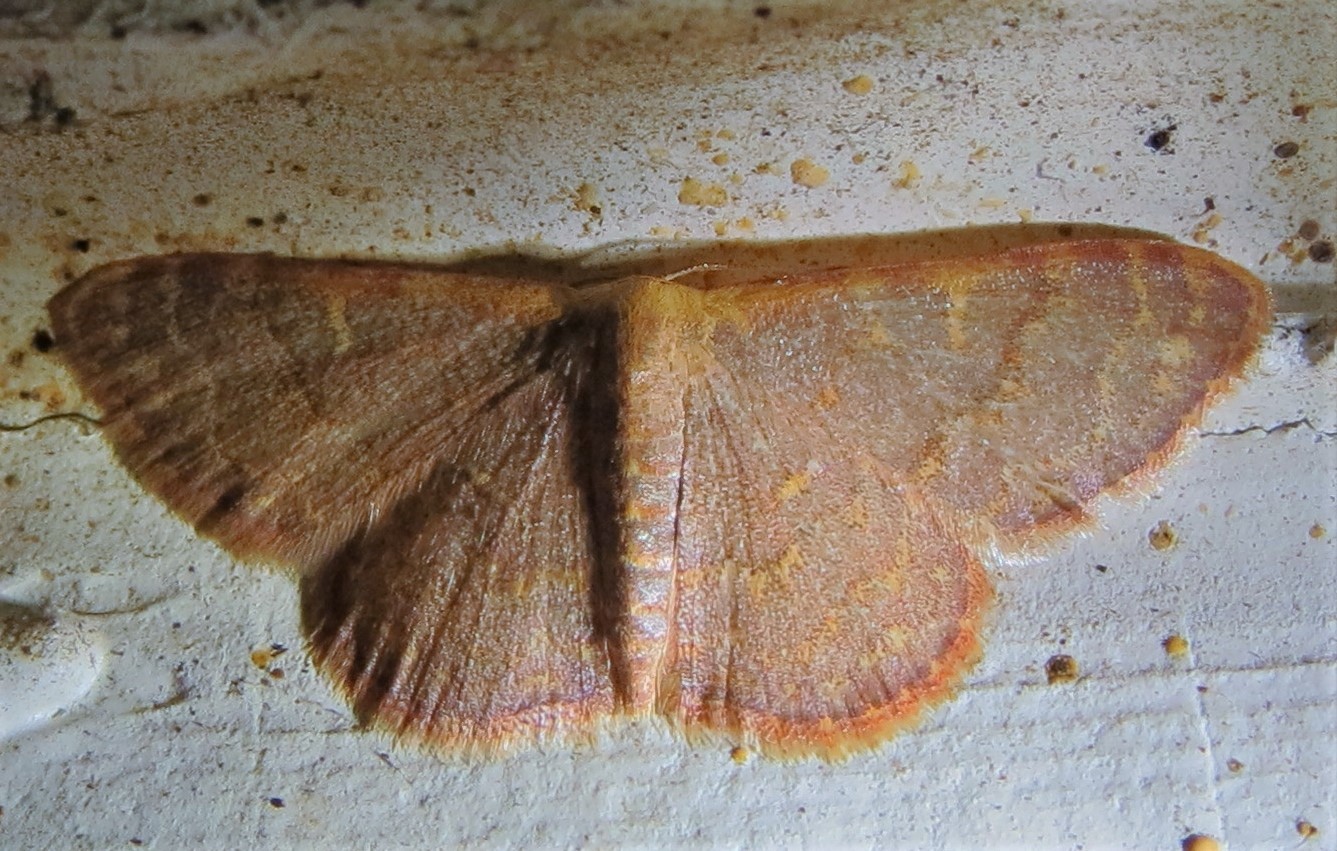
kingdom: Animalia
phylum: Arthropoda
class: Insecta
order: Lepidoptera
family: Geometridae
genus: Leptostales
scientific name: Leptostales pannaria
